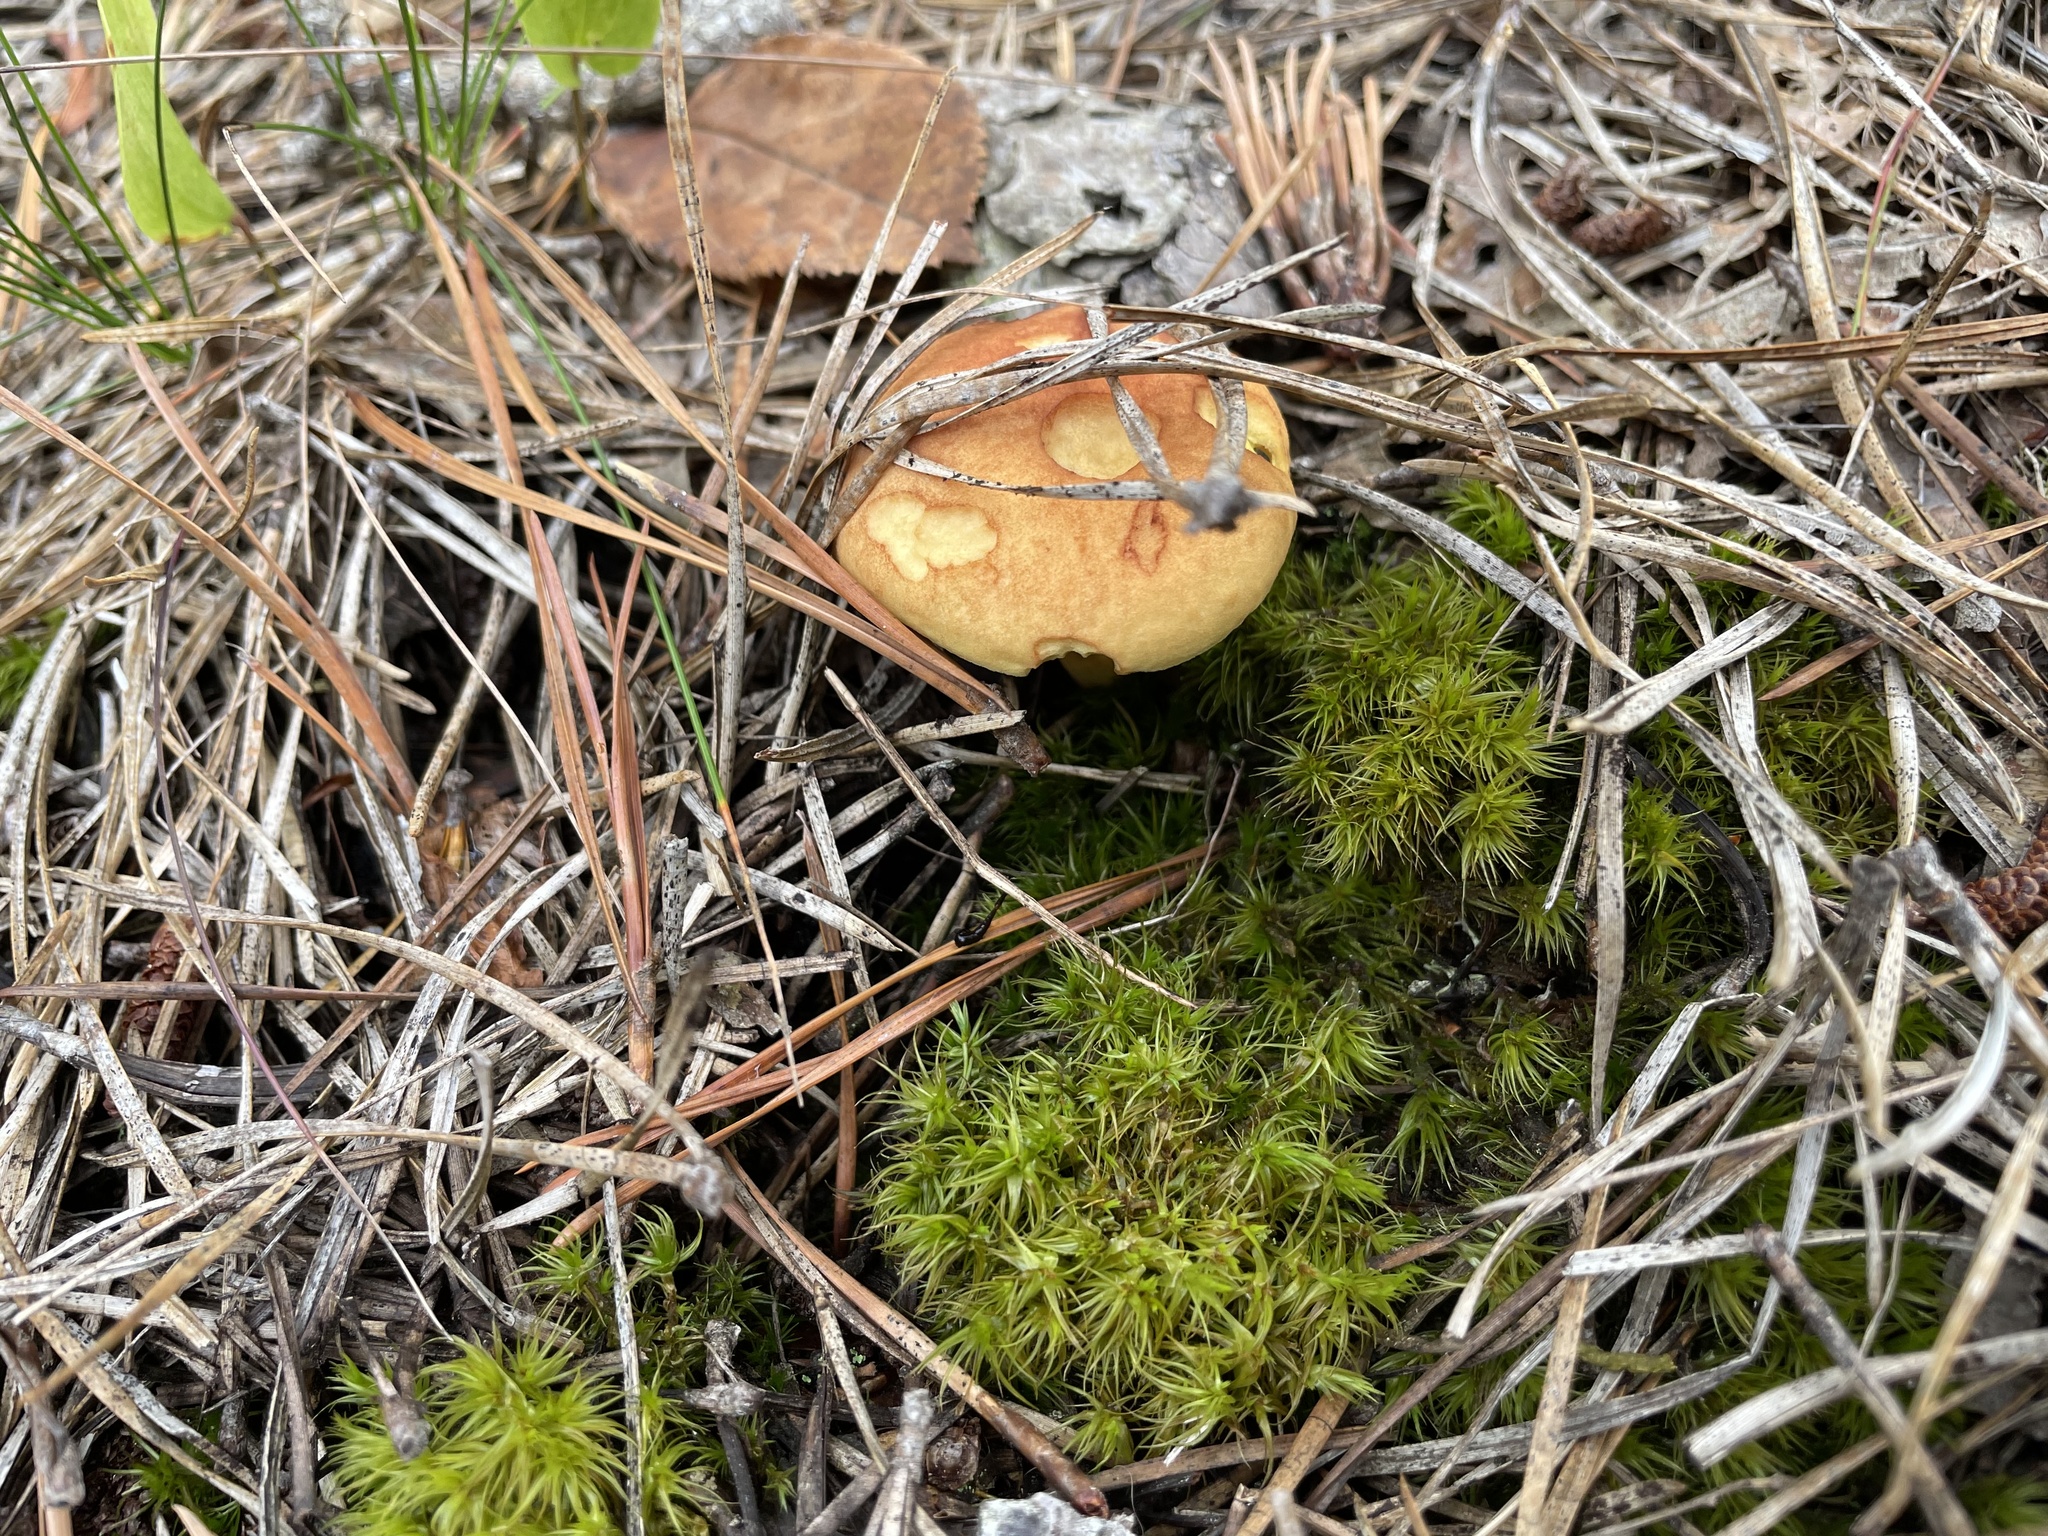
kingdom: Fungi
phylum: Basidiomycota
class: Agaricomycetes
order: Boletales
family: Boletaceae
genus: Boletus
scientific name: Boletus subcaerulescens
